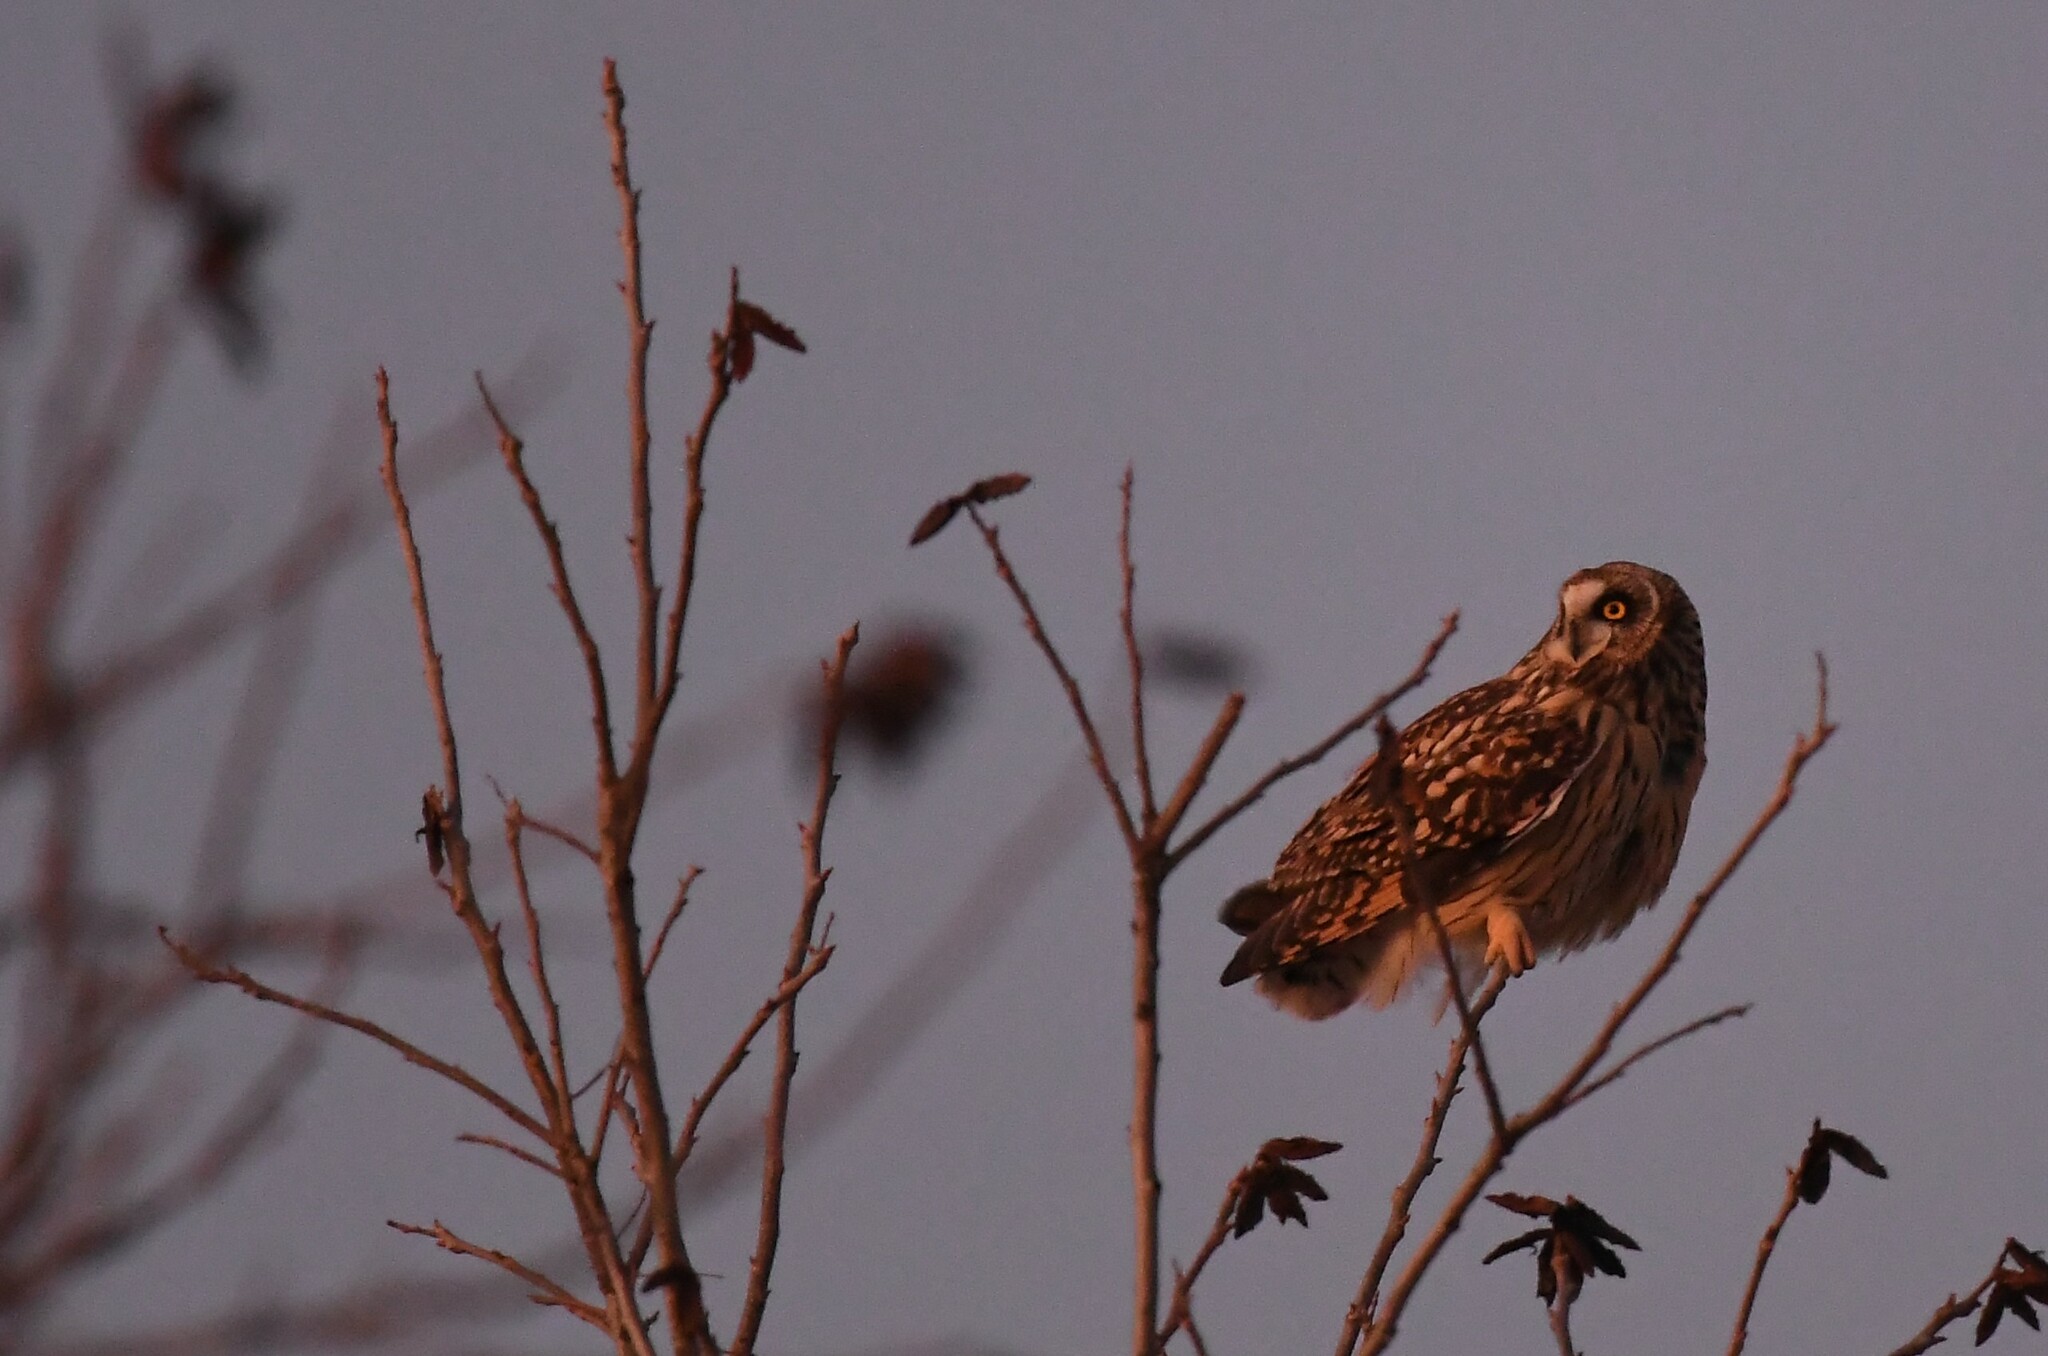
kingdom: Animalia
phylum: Chordata
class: Aves
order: Strigiformes
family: Strigidae
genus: Asio
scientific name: Asio flammeus
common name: Short-eared owl
